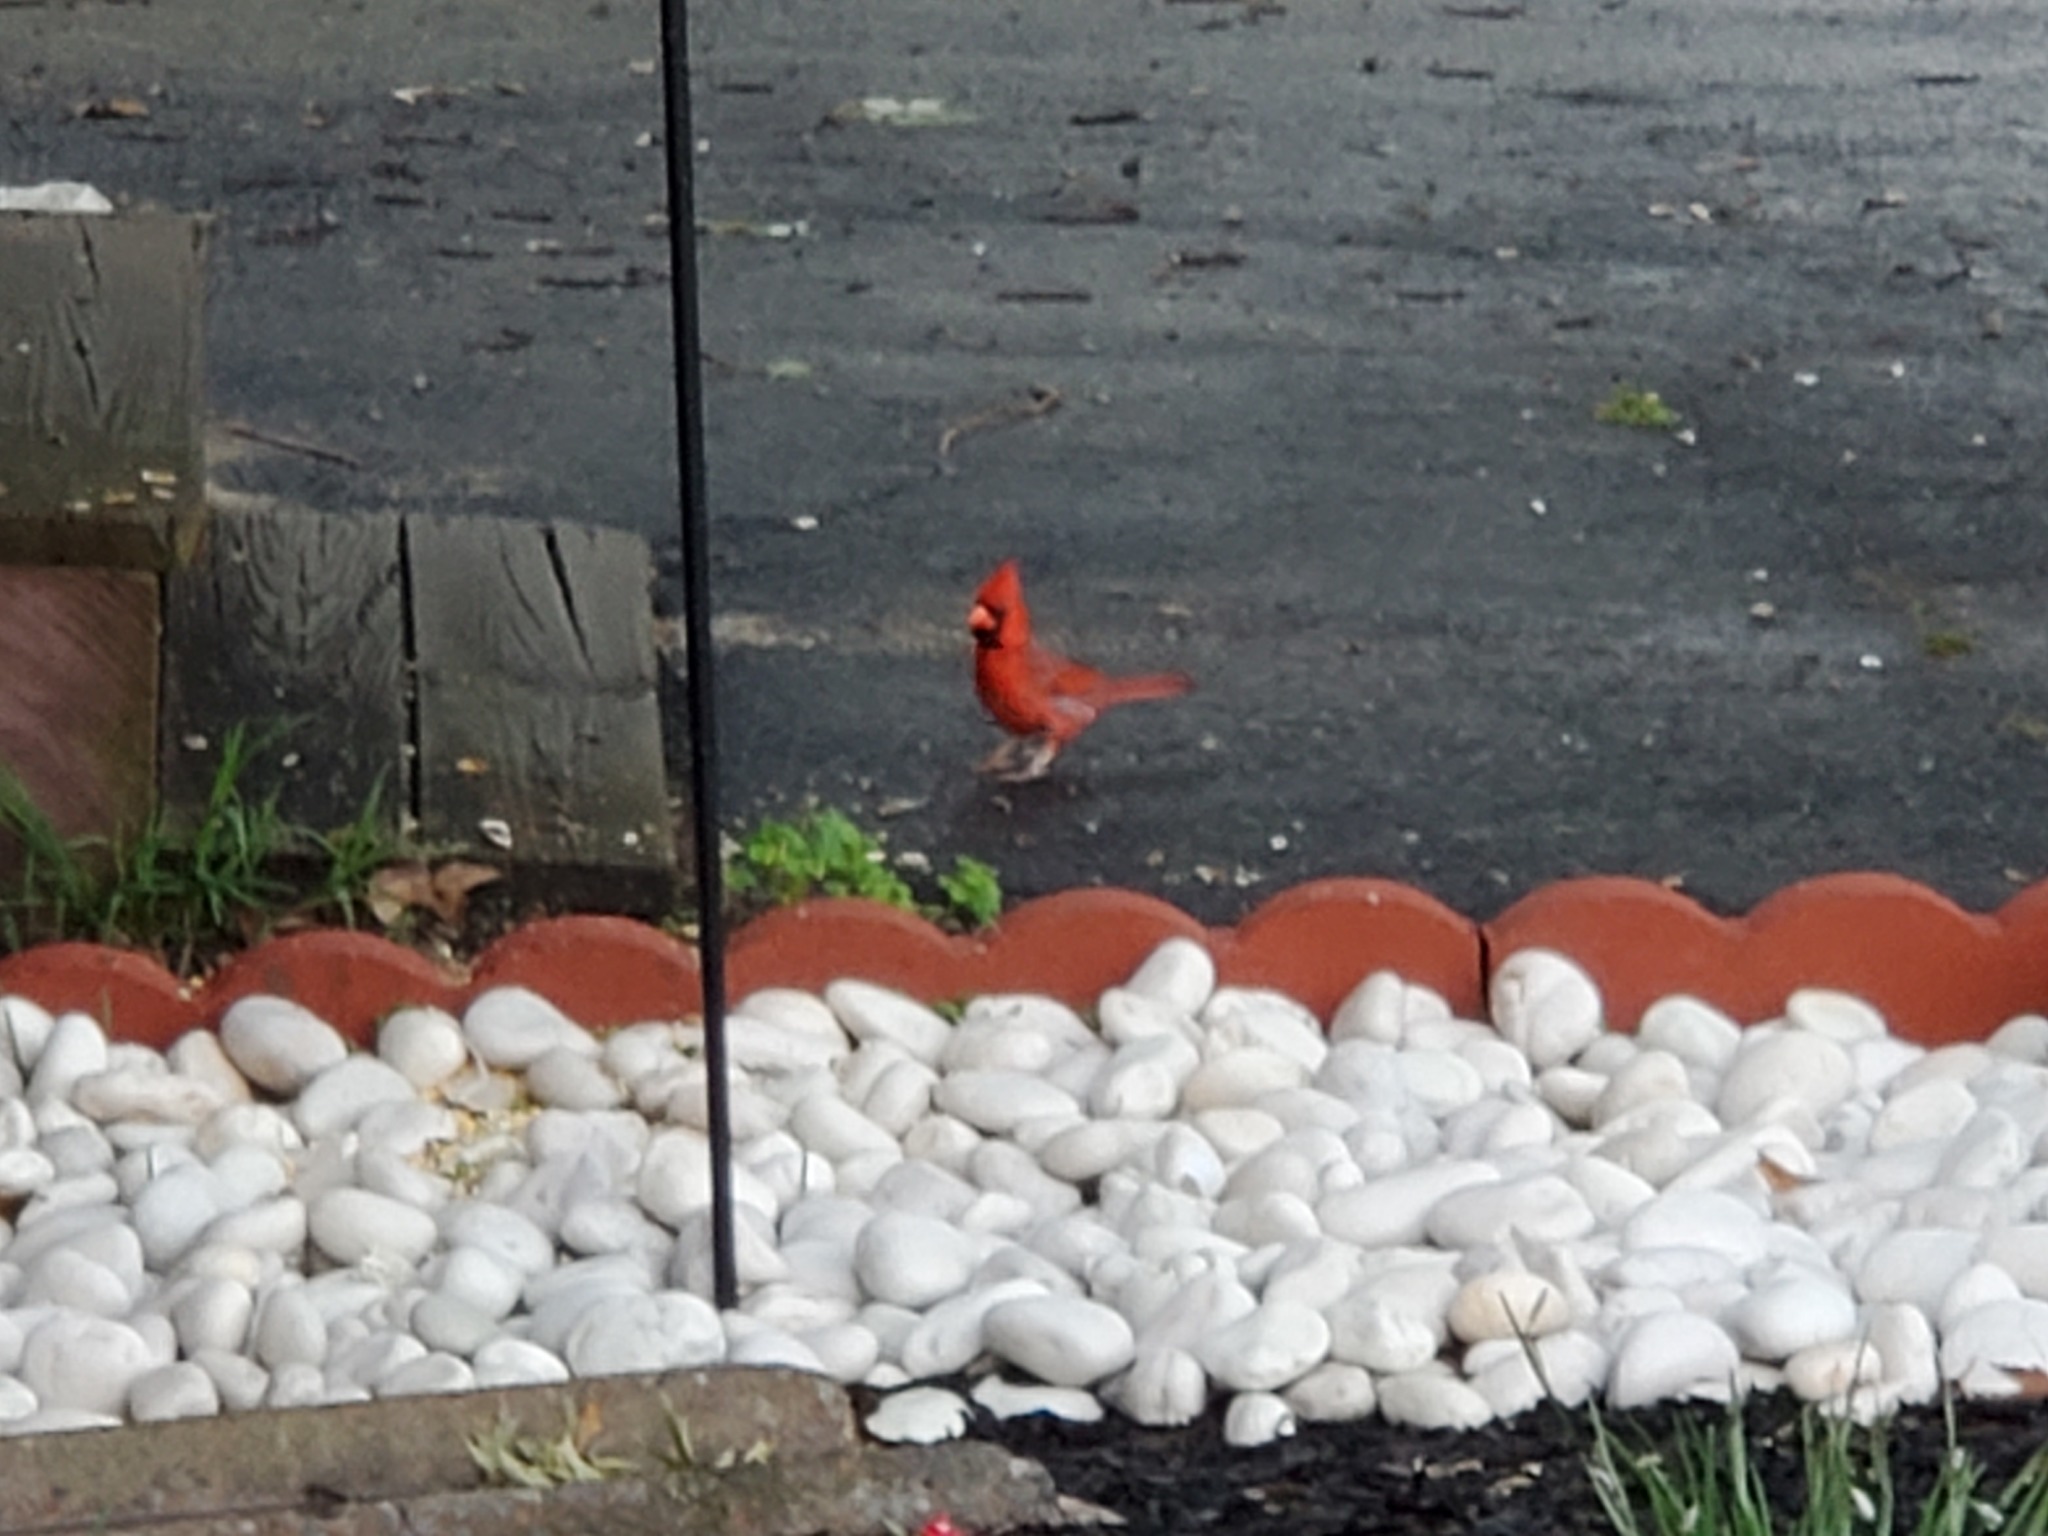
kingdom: Animalia
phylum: Chordata
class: Aves
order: Passeriformes
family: Cardinalidae
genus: Cardinalis
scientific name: Cardinalis cardinalis
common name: Northern cardinal
